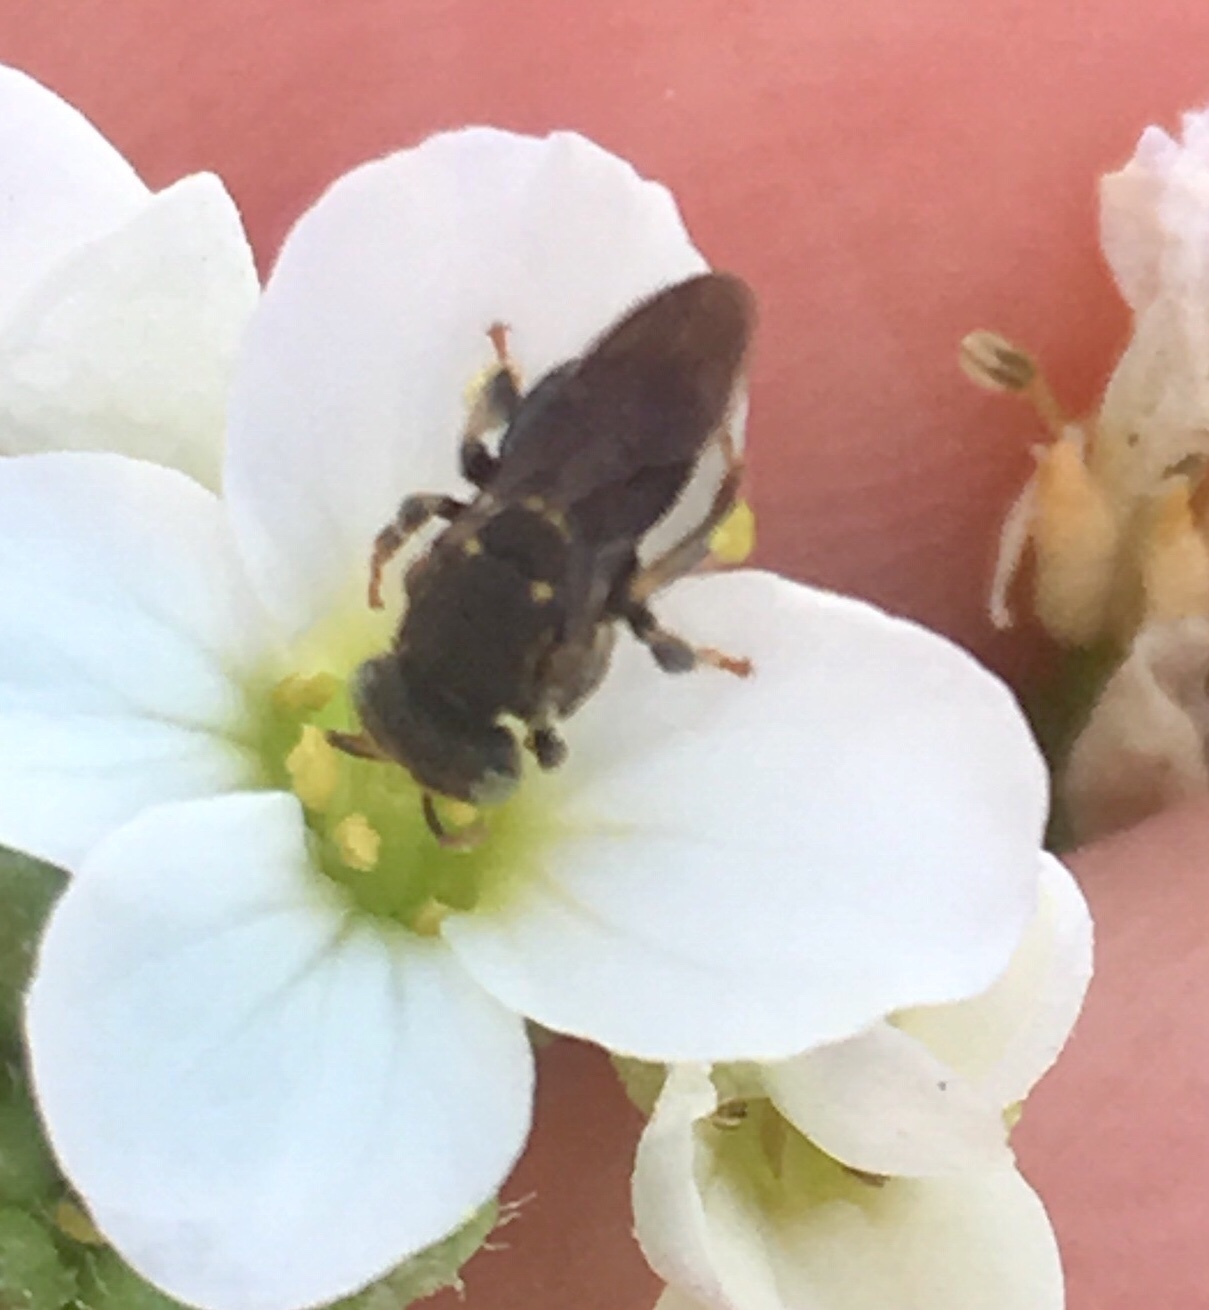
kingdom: Animalia
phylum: Arthropoda
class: Insecta
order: Hymenoptera
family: Apidae
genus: Nannotrigona
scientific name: Nannotrigona perilampoides
